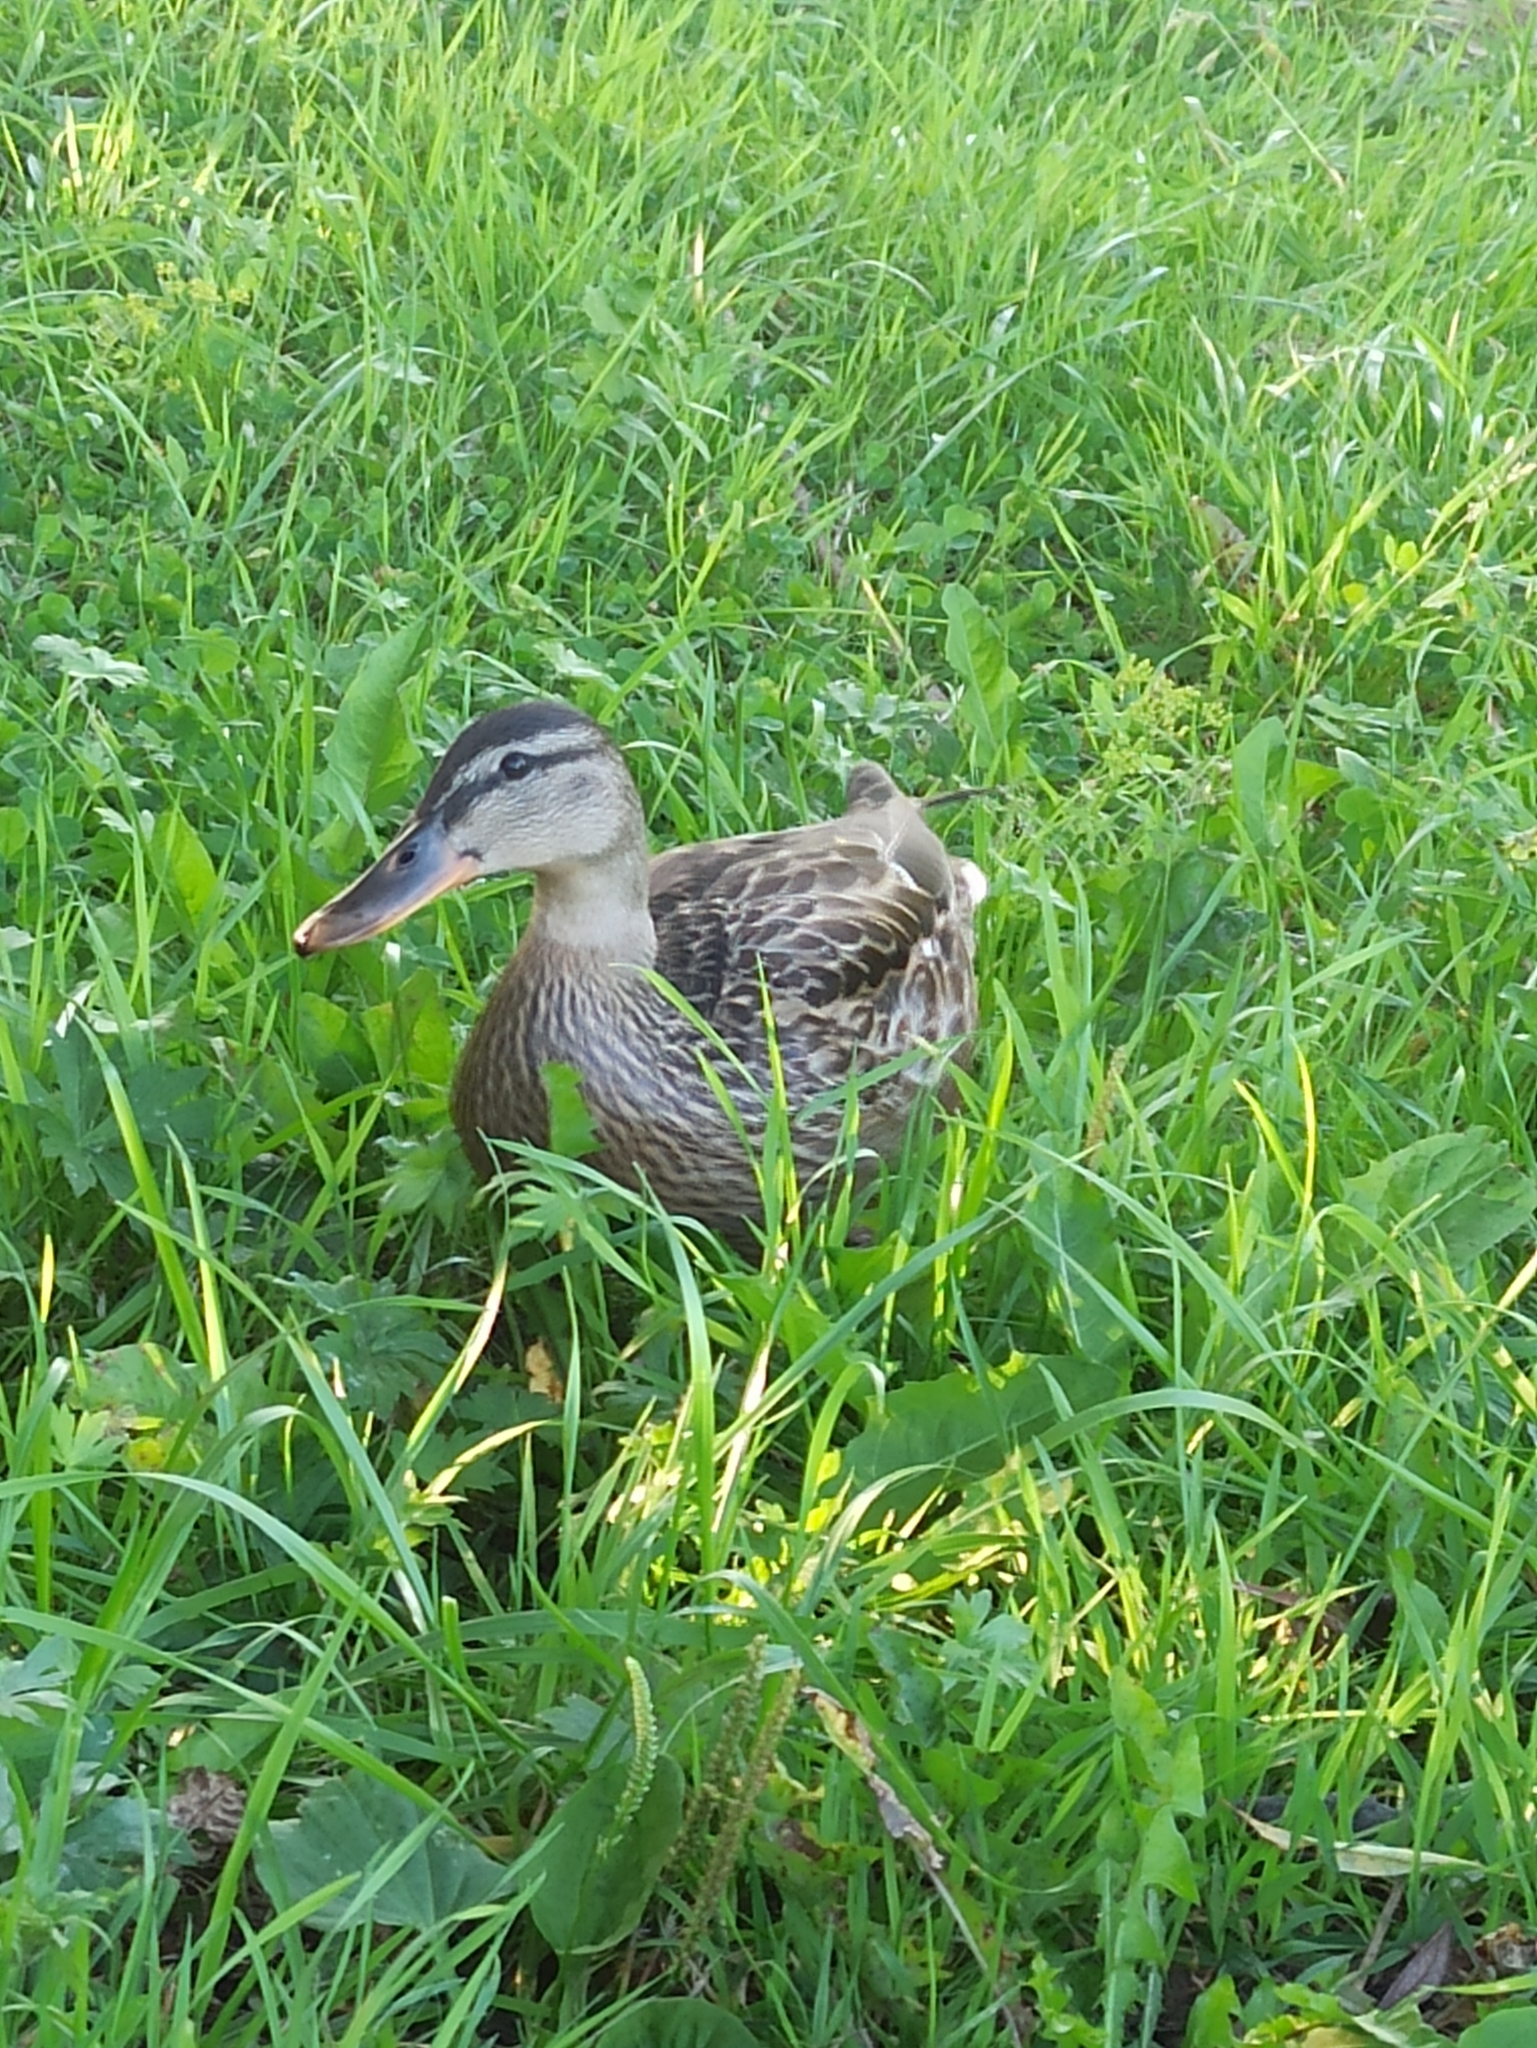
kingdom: Animalia
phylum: Chordata
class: Aves
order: Anseriformes
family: Anatidae
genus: Anas
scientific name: Anas platyrhynchos
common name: Mallard
